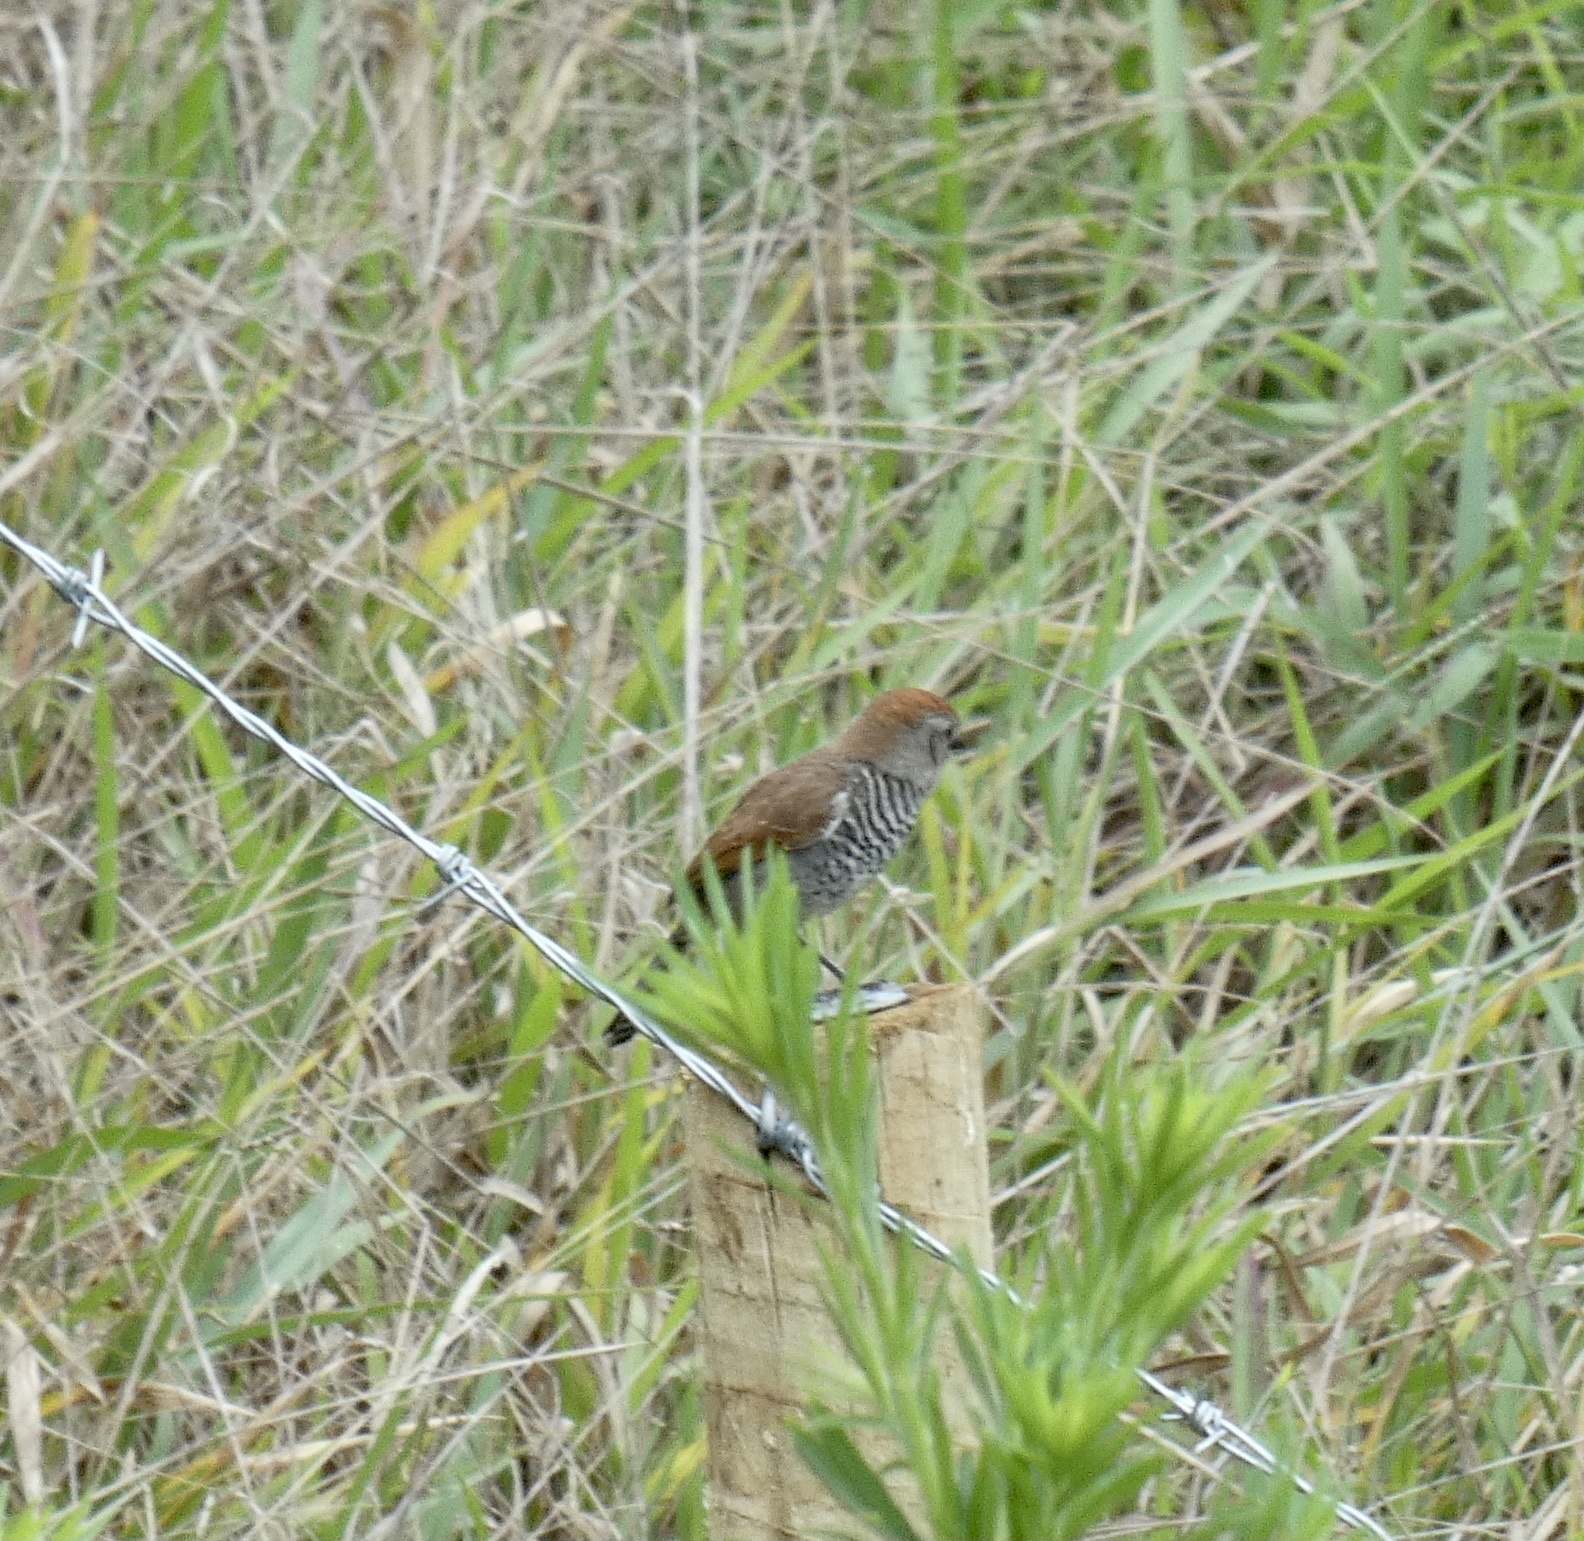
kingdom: Animalia
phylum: Chordata
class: Aves
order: Passeriformes
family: Thamnophilidae
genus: Thamnophilus
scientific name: Thamnophilus ruficapillus
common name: Rufous-capped antshrike
